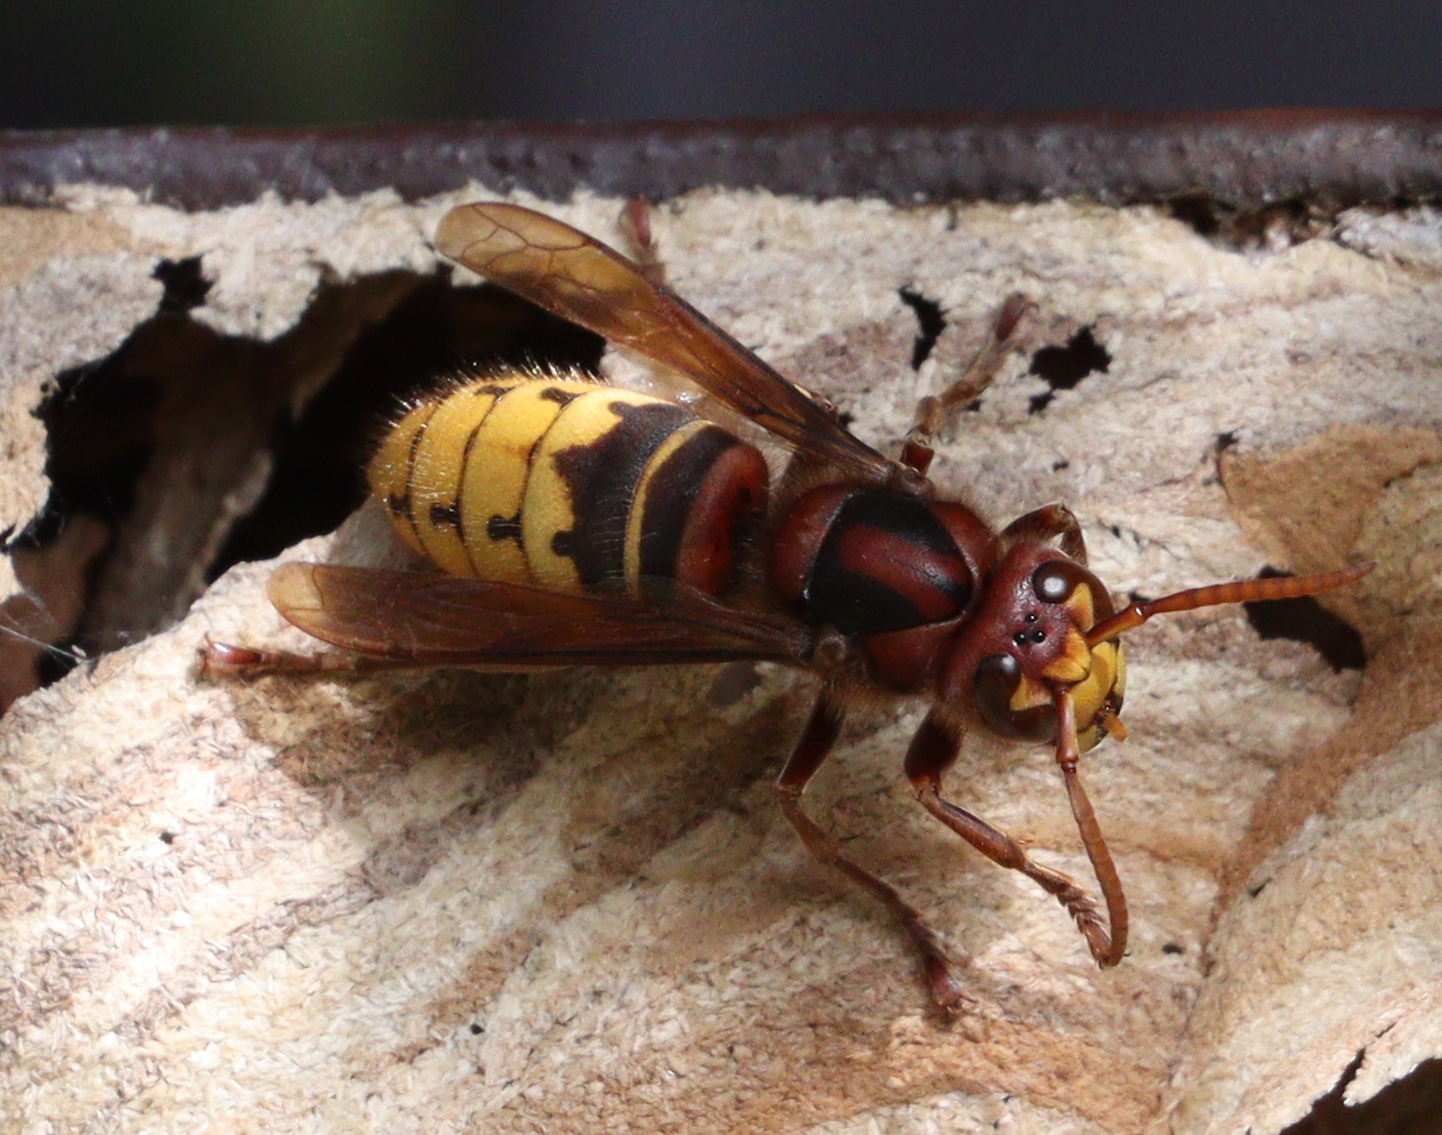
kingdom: Animalia
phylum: Arthropoda
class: Insecta
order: Hymenoptera
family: Vespidae
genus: Vespa
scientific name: Vespa crabro
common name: Hornet
